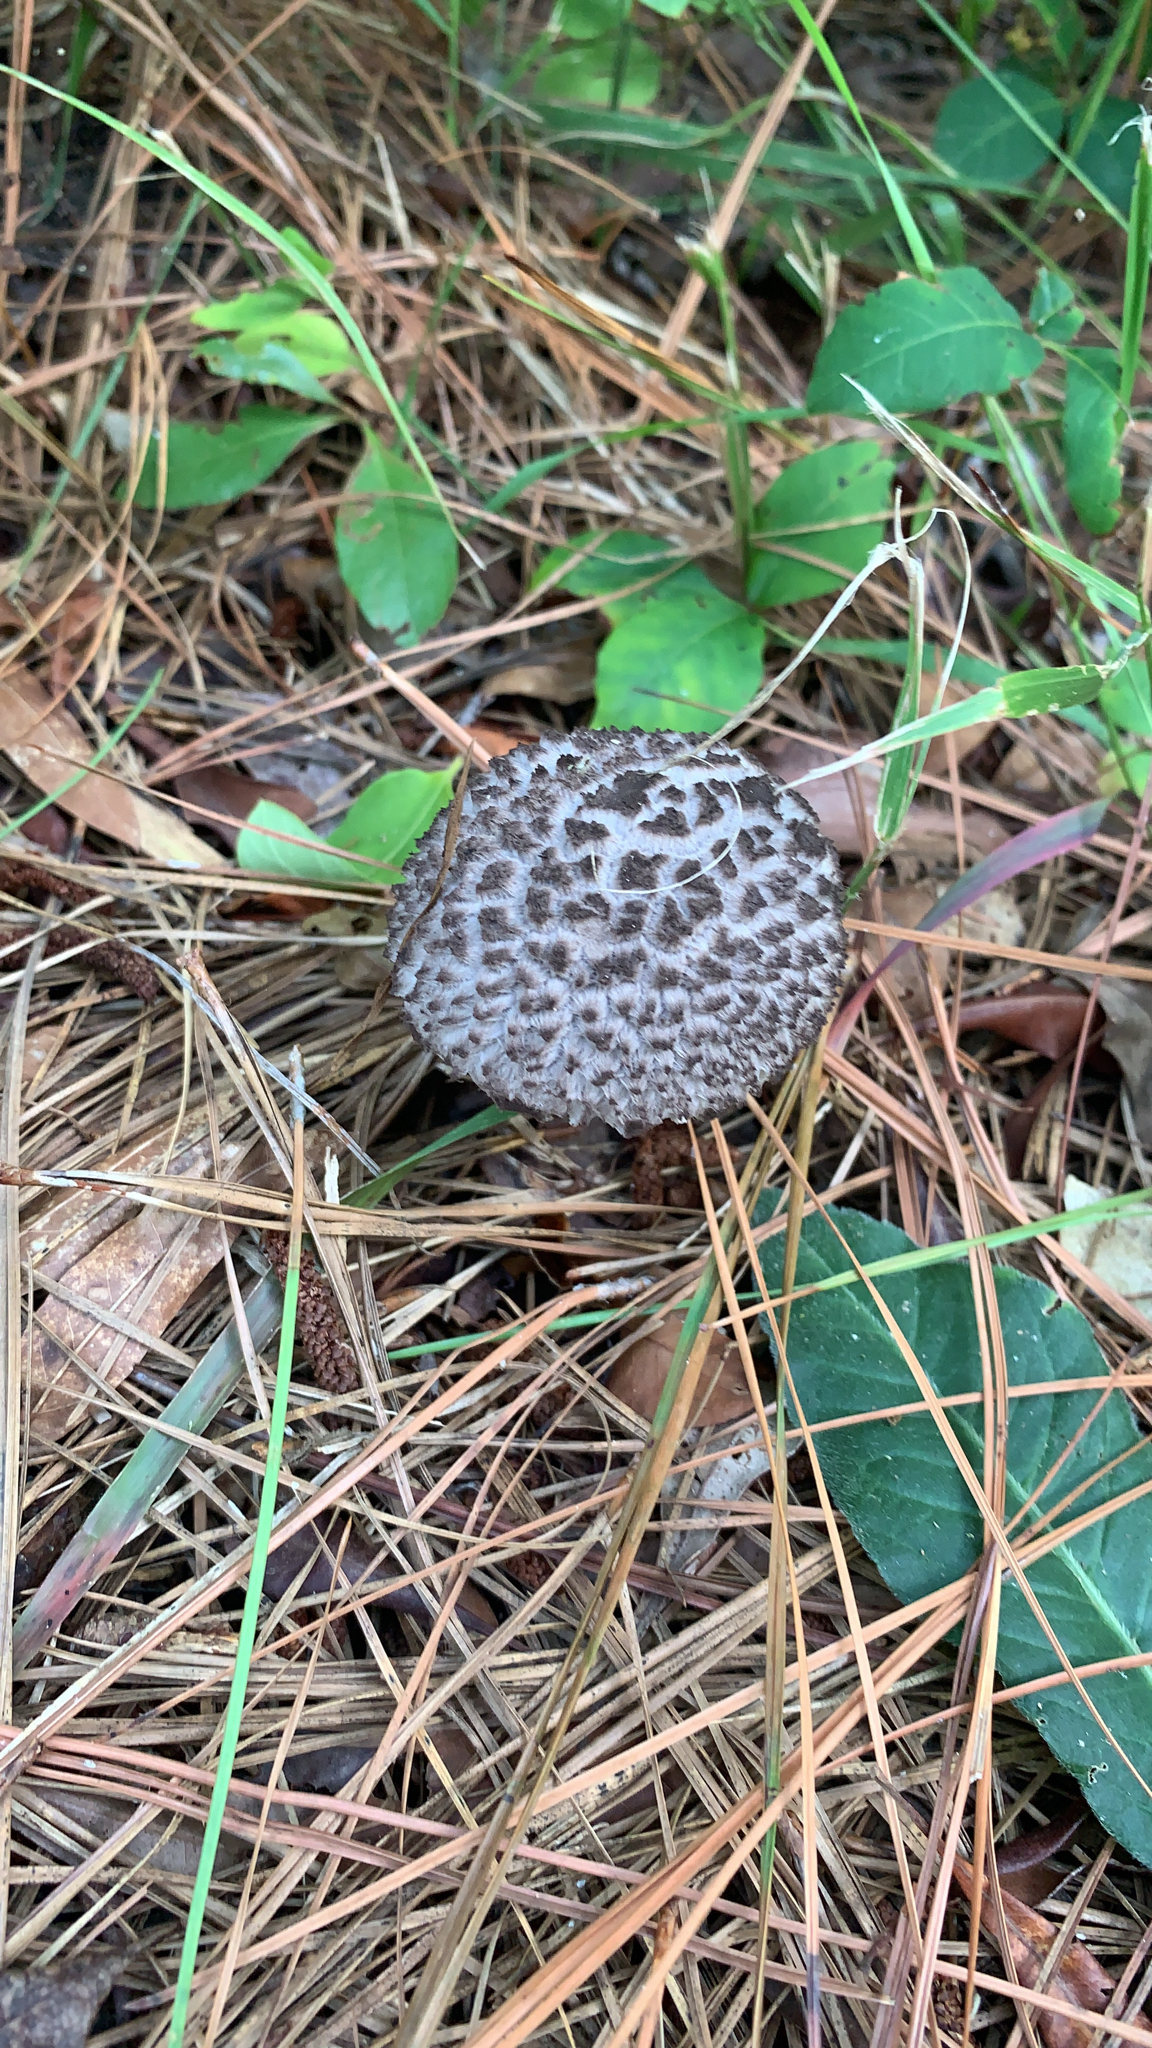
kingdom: Fungi
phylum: Basidiomycota
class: Agaricomycetes
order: Boletales
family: Boletaceae
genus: Strobilomyces
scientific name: Strobilomyces strobilaceus
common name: Old man of the woods
